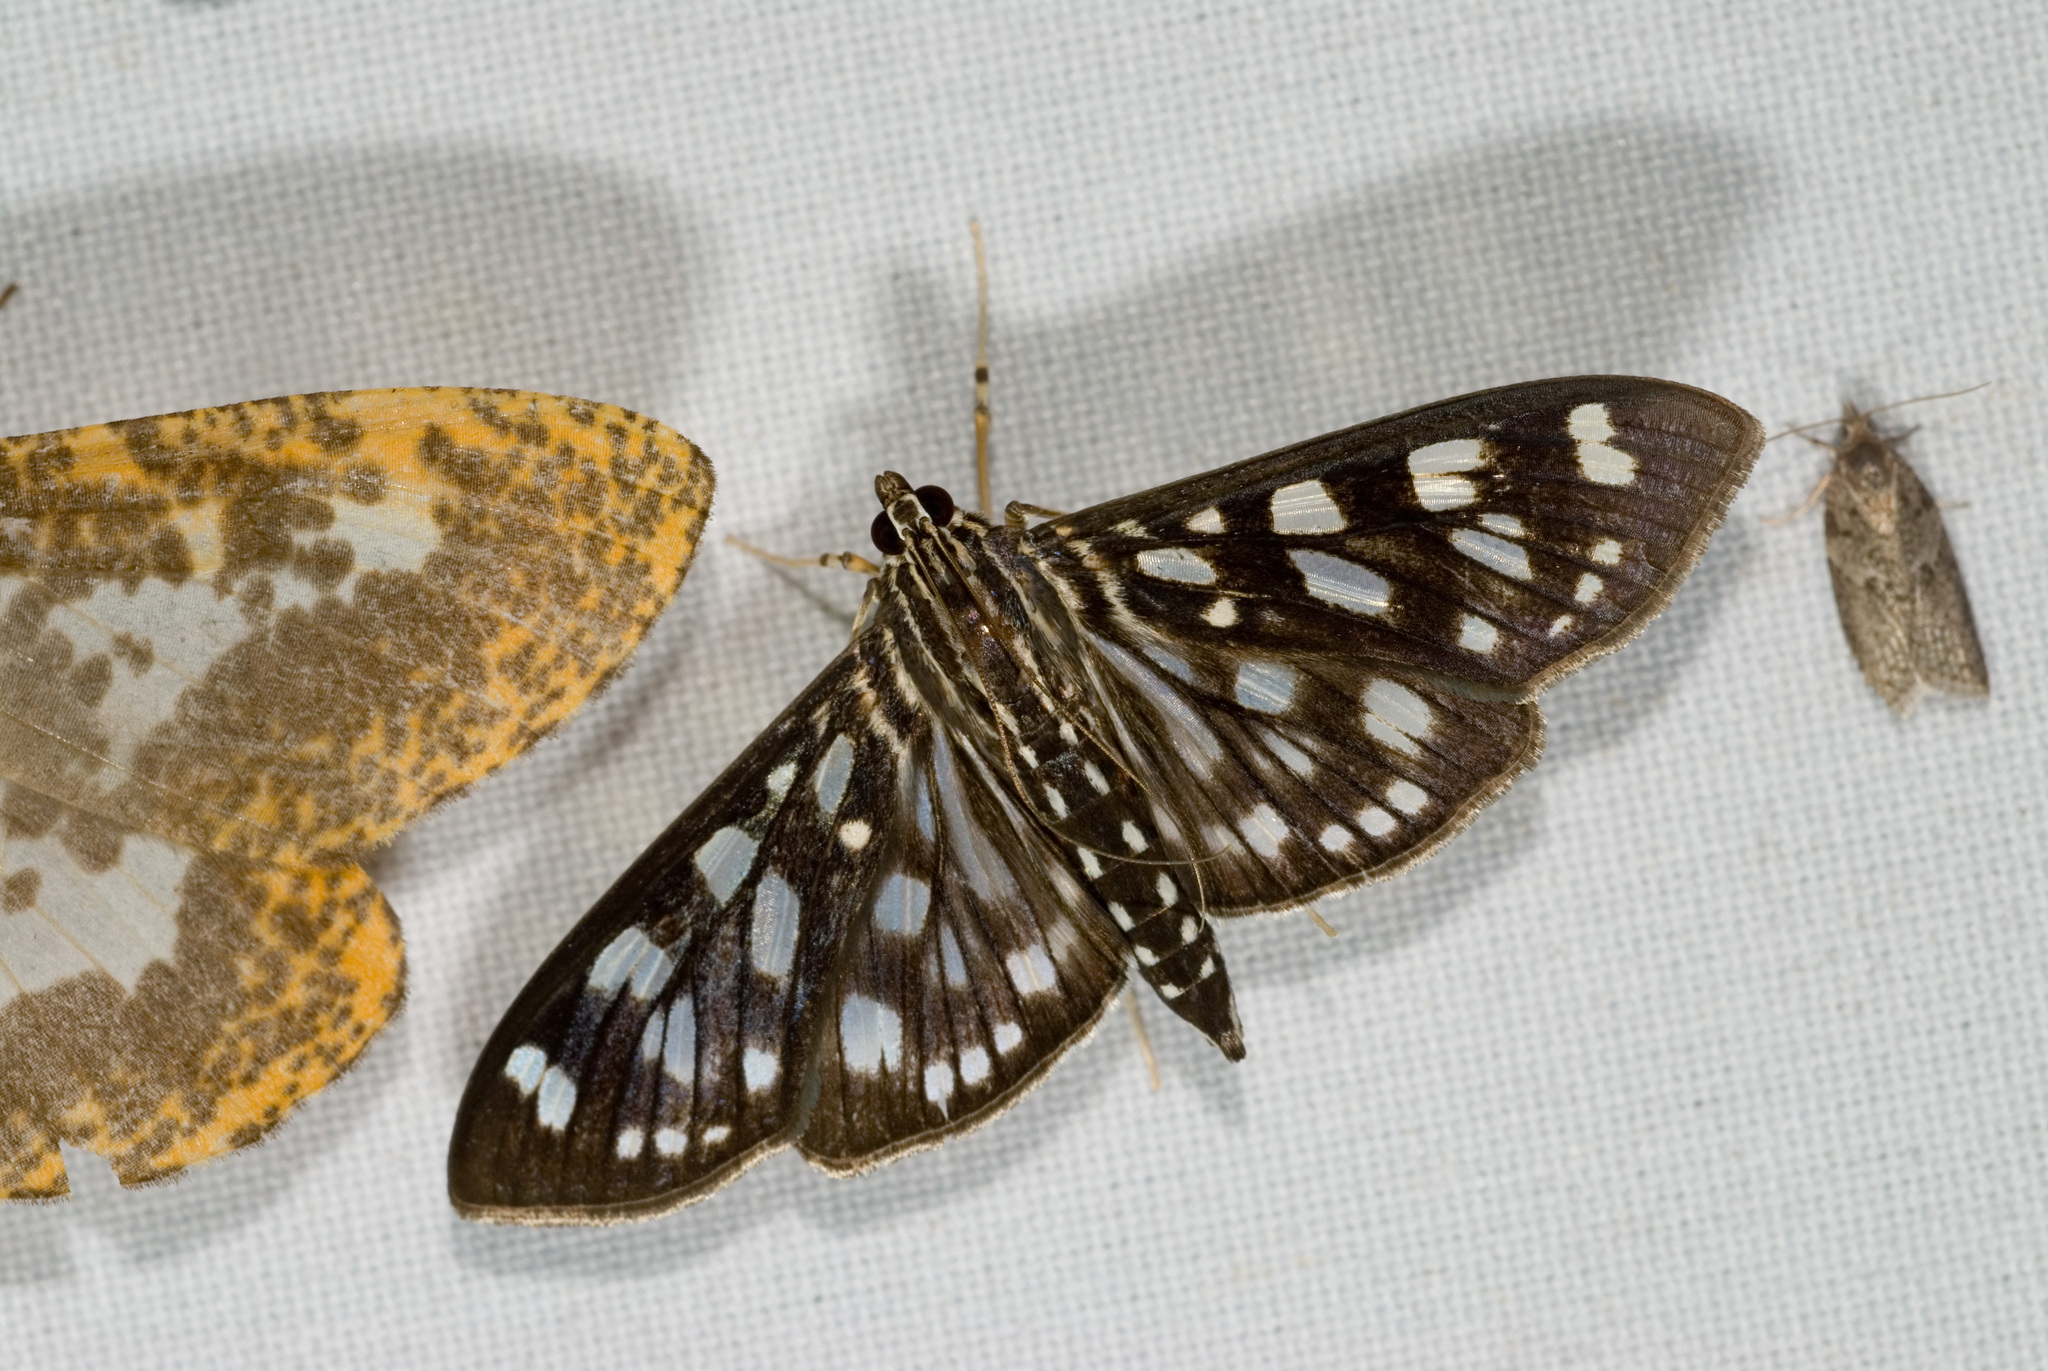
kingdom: Animalia
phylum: Arthropoda
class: Insecta
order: Lepidoptera
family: Crambidae
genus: Pygospila
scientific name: Pygospila tyres
